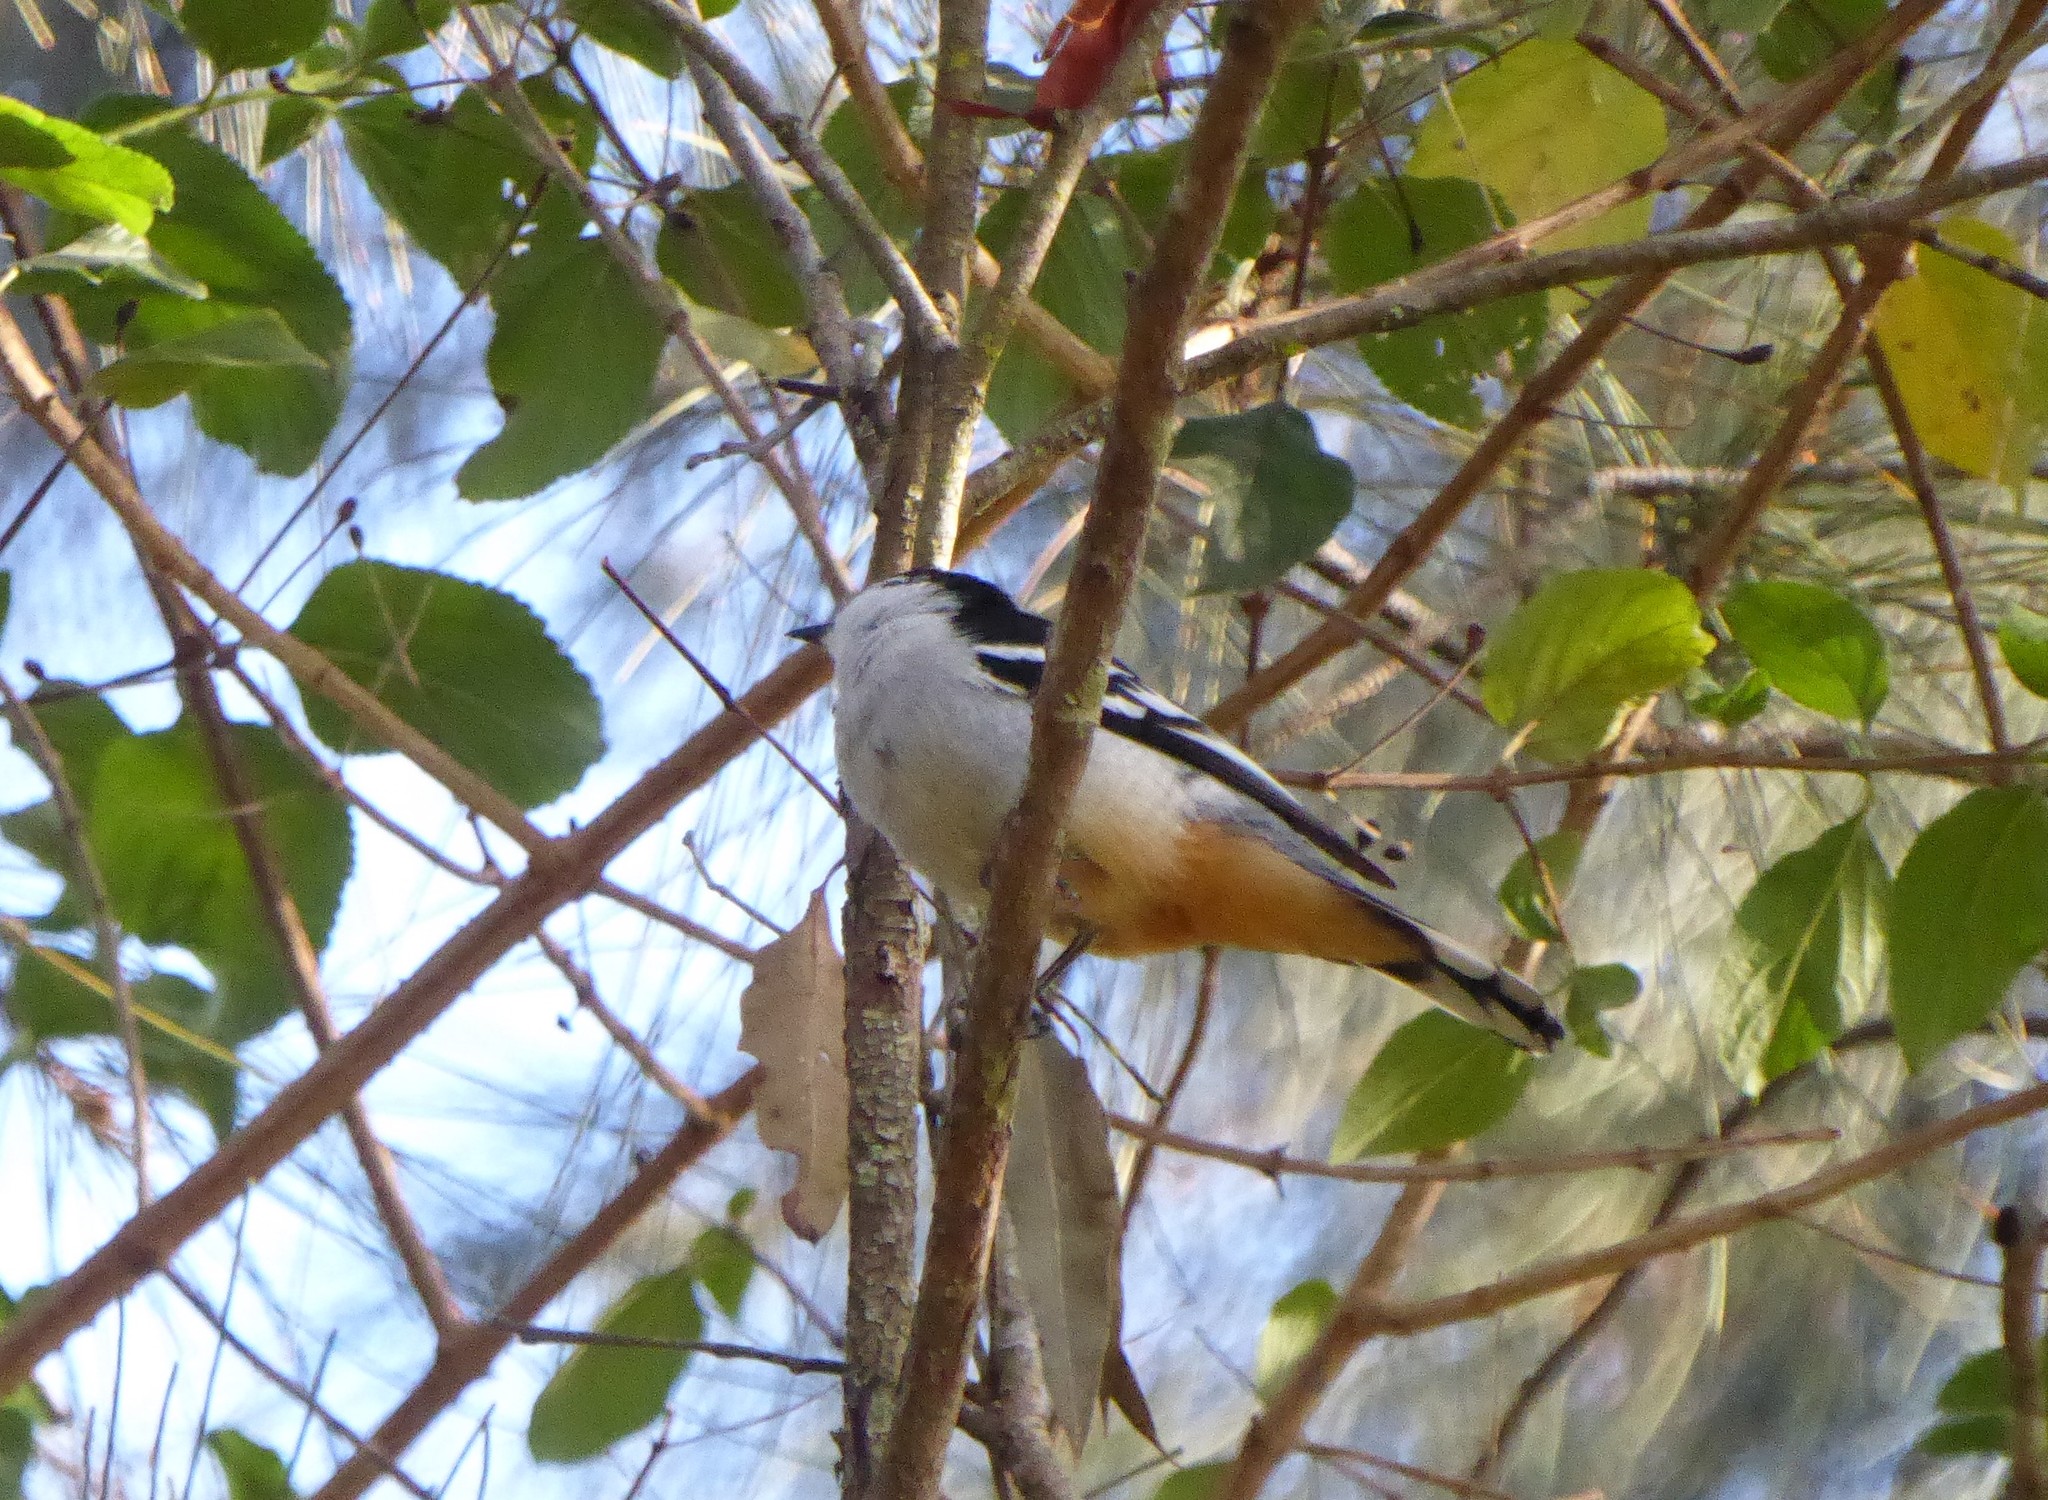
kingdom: Animalia
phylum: Chordata
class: Aves
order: Passeriformes
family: Campephagidae
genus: Lalage
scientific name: Lalage leucomela
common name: Varied triller
